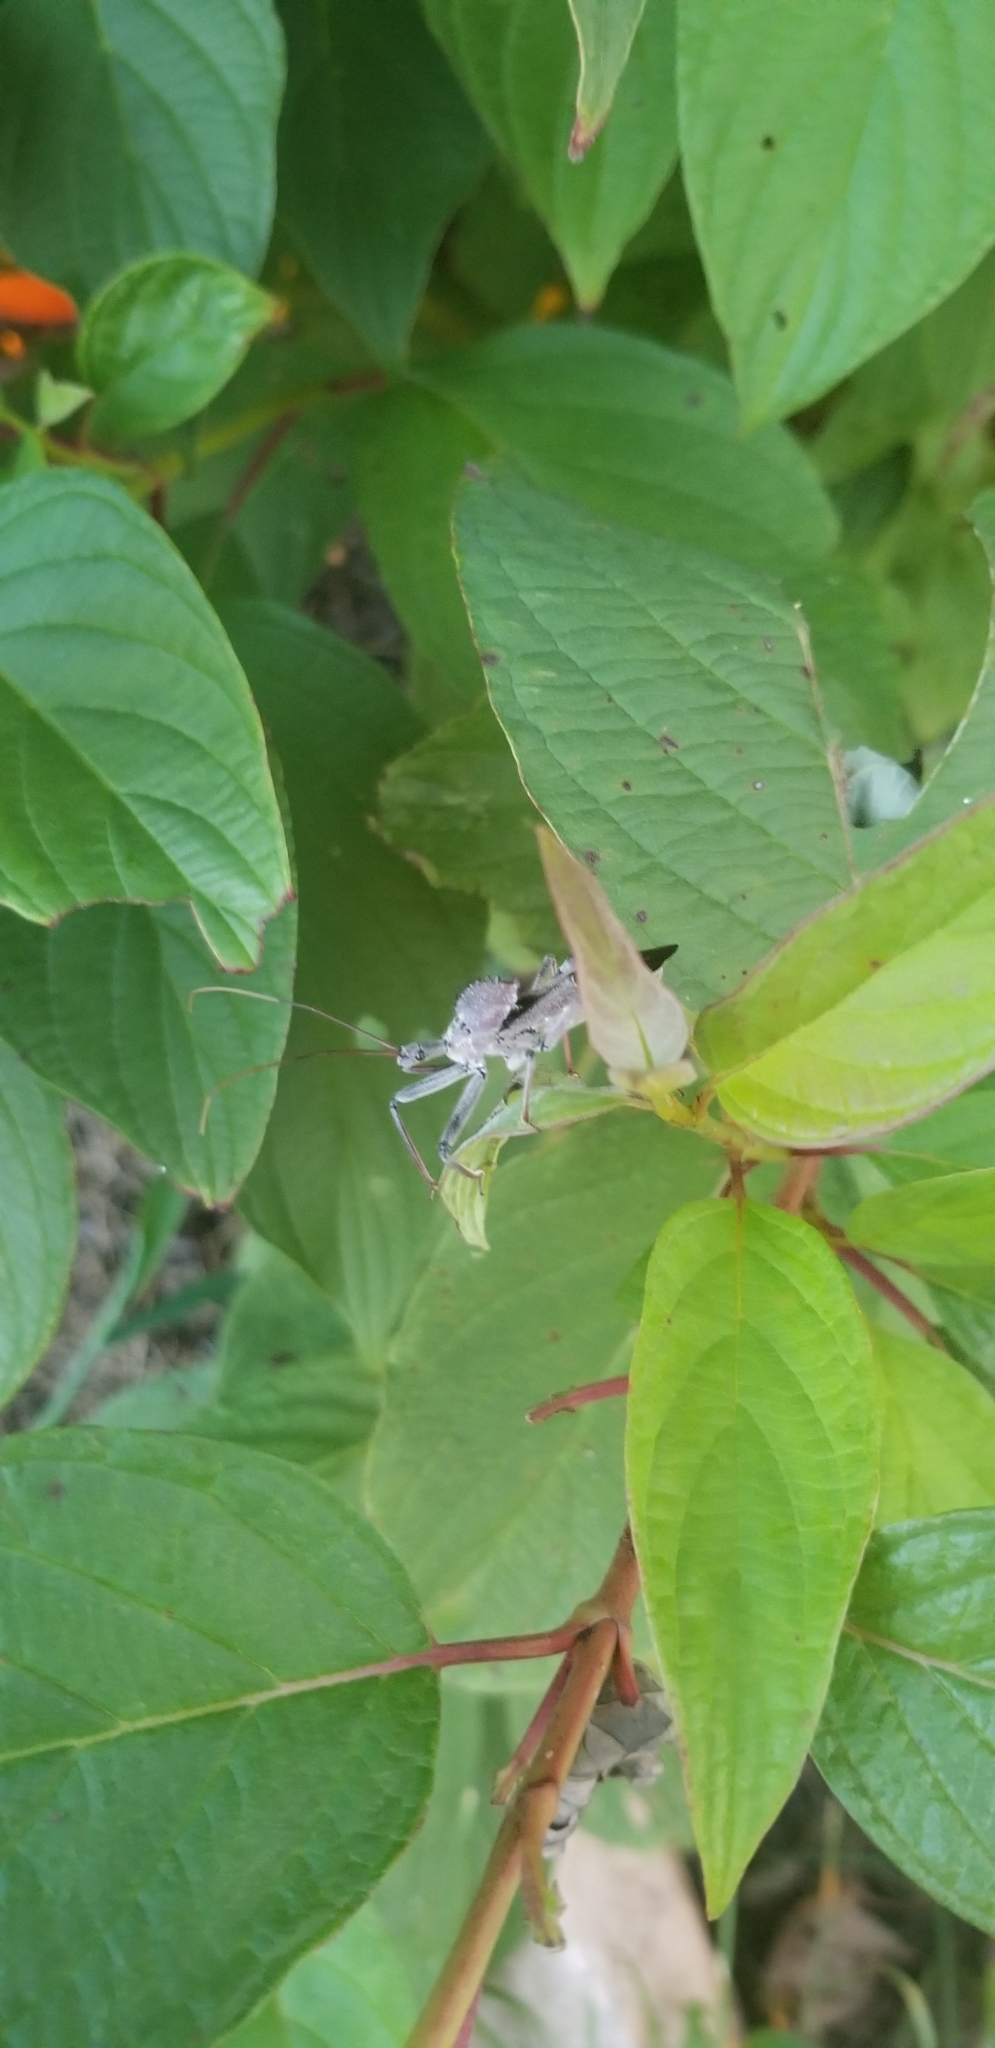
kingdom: Animalia
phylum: Arthropoda
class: Insecta
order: Hemiptera
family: Reduviidae
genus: Arilus
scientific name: Arilus cristatus
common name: North american wheel bug
